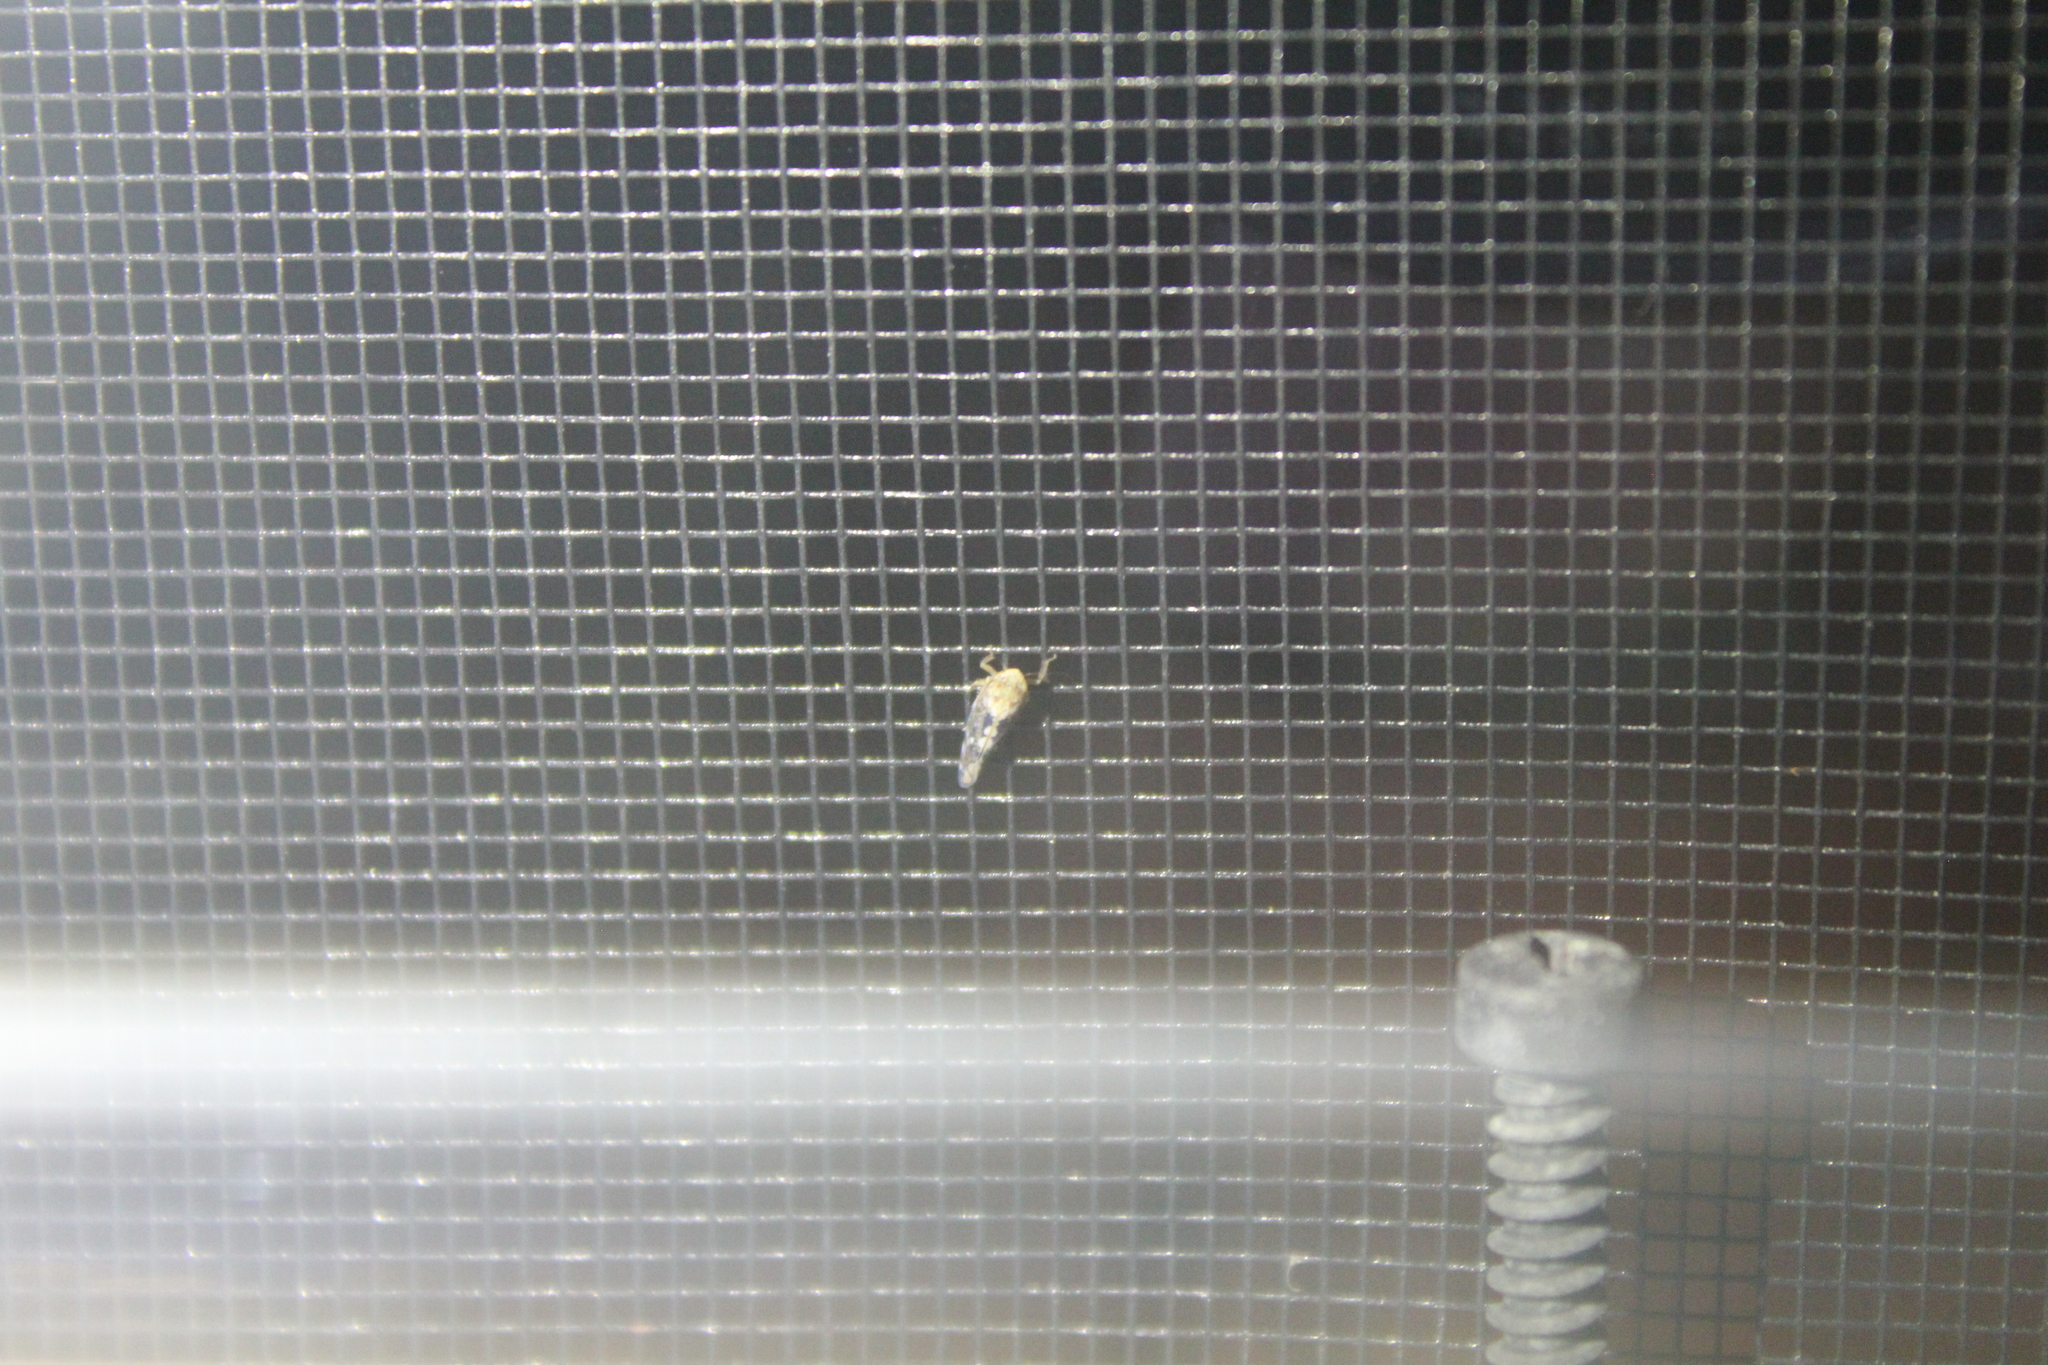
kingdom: Animalia
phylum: Arthropoda
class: Insecta
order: Hemiptera
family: Cicadellidae
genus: Prescottia
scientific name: Prescottia lobata
